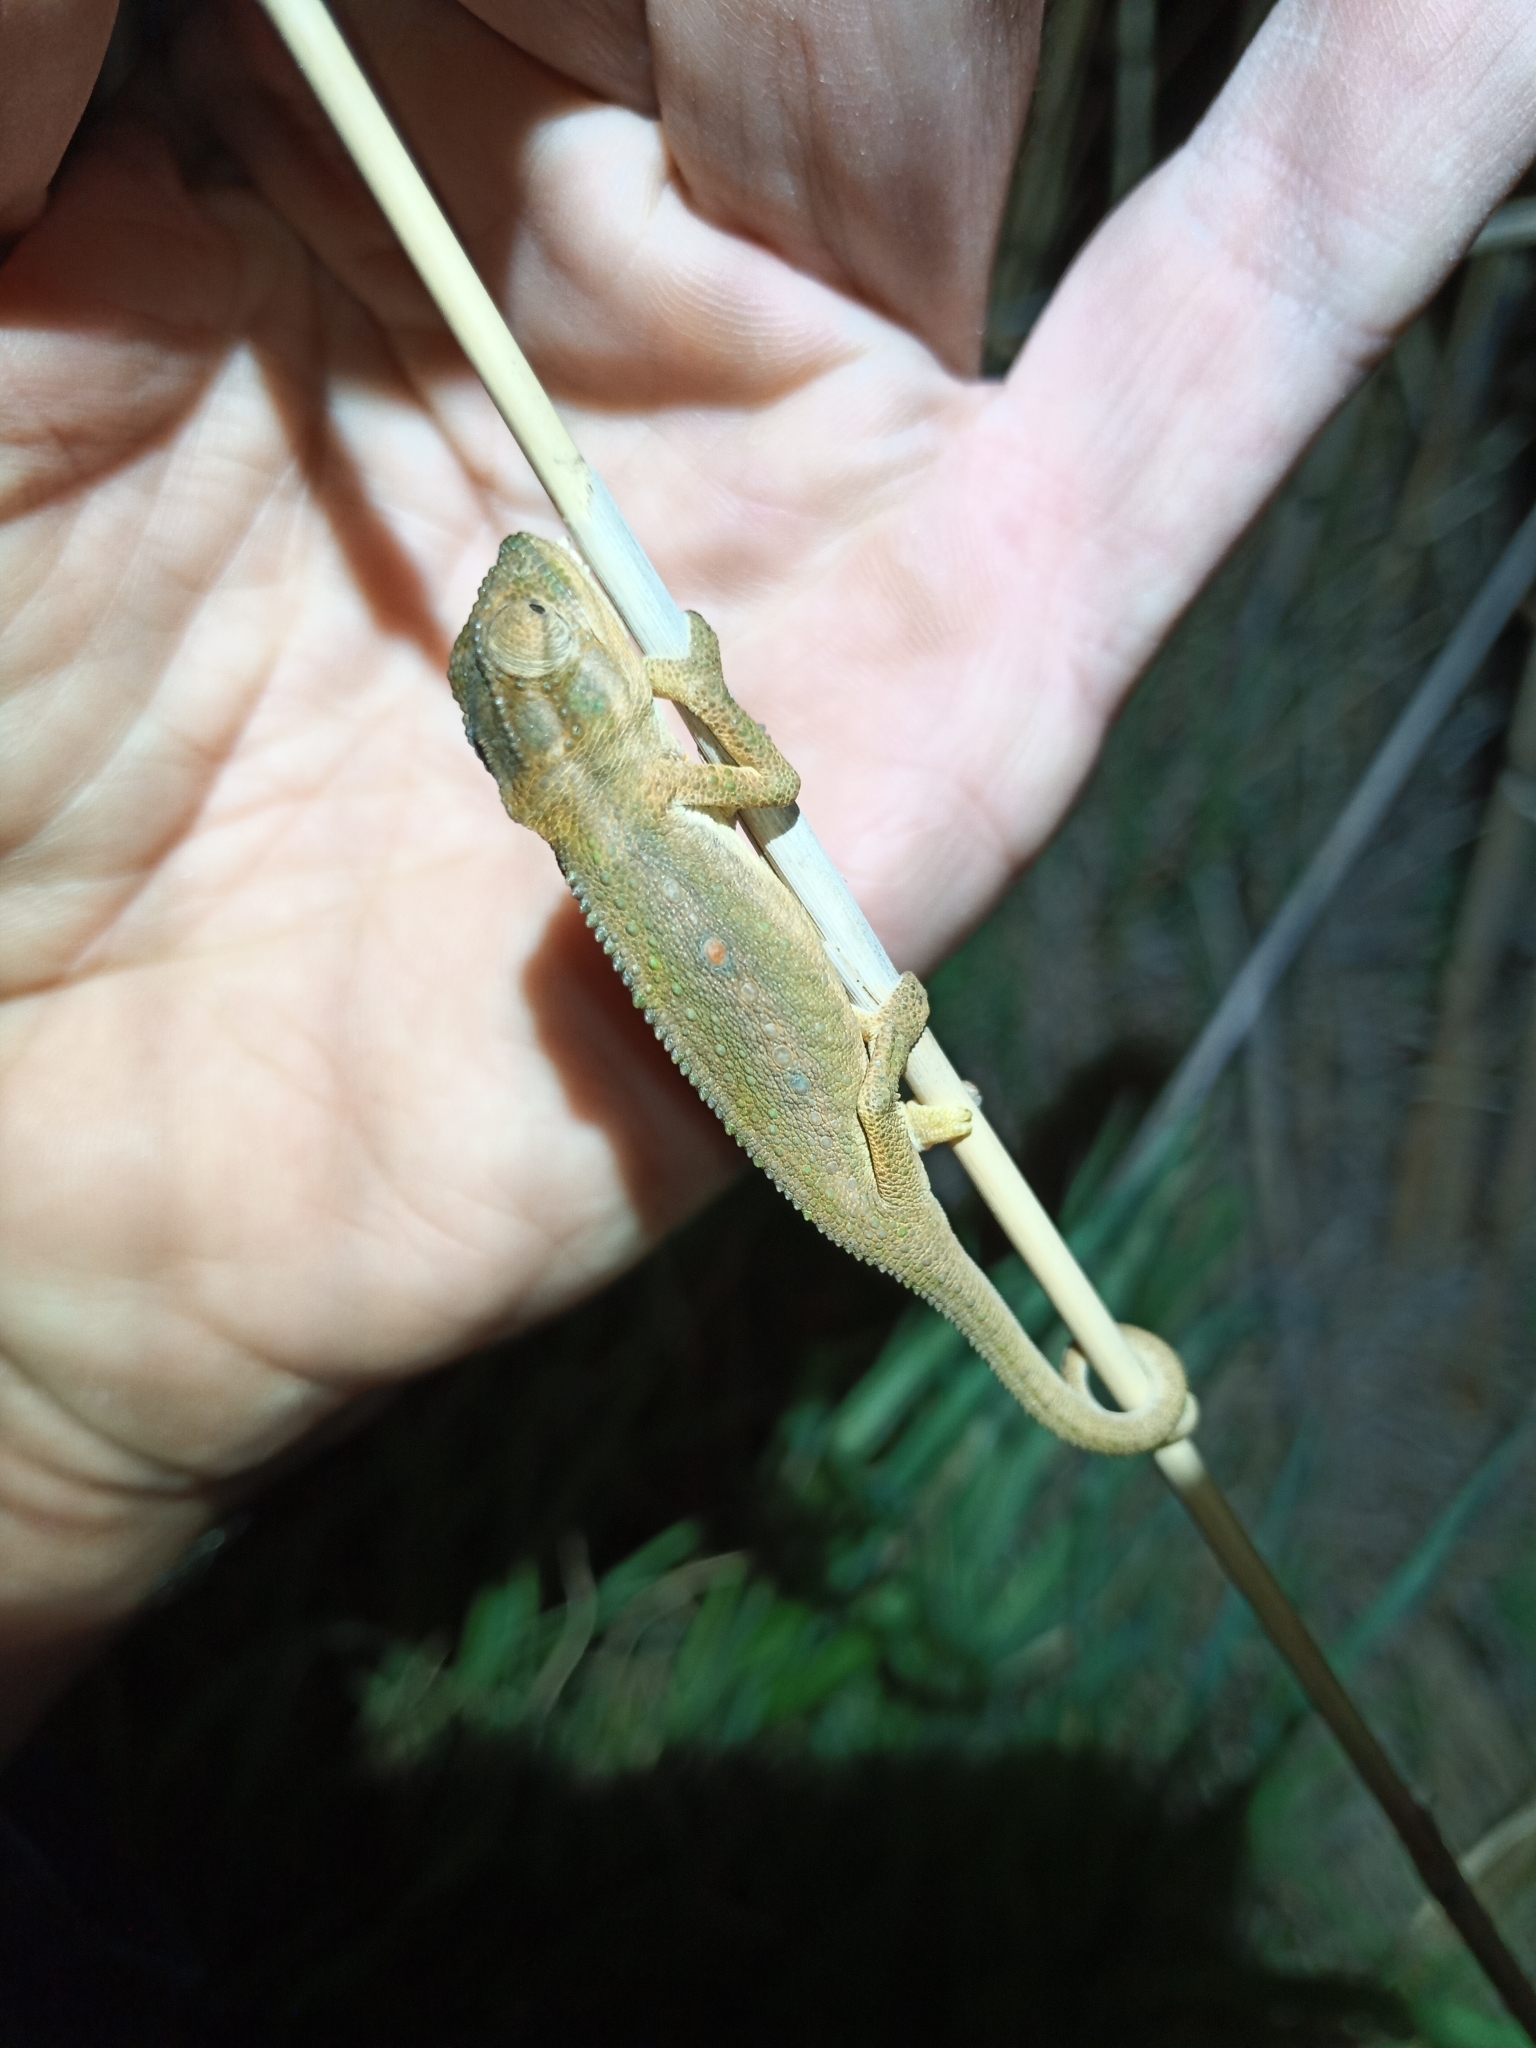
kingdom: Animalia
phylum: Chordata
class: Squamata
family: Chamaeleonidae
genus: Bradypodion
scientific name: Bradypodion pumilum
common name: Cape dwarf chameleon
